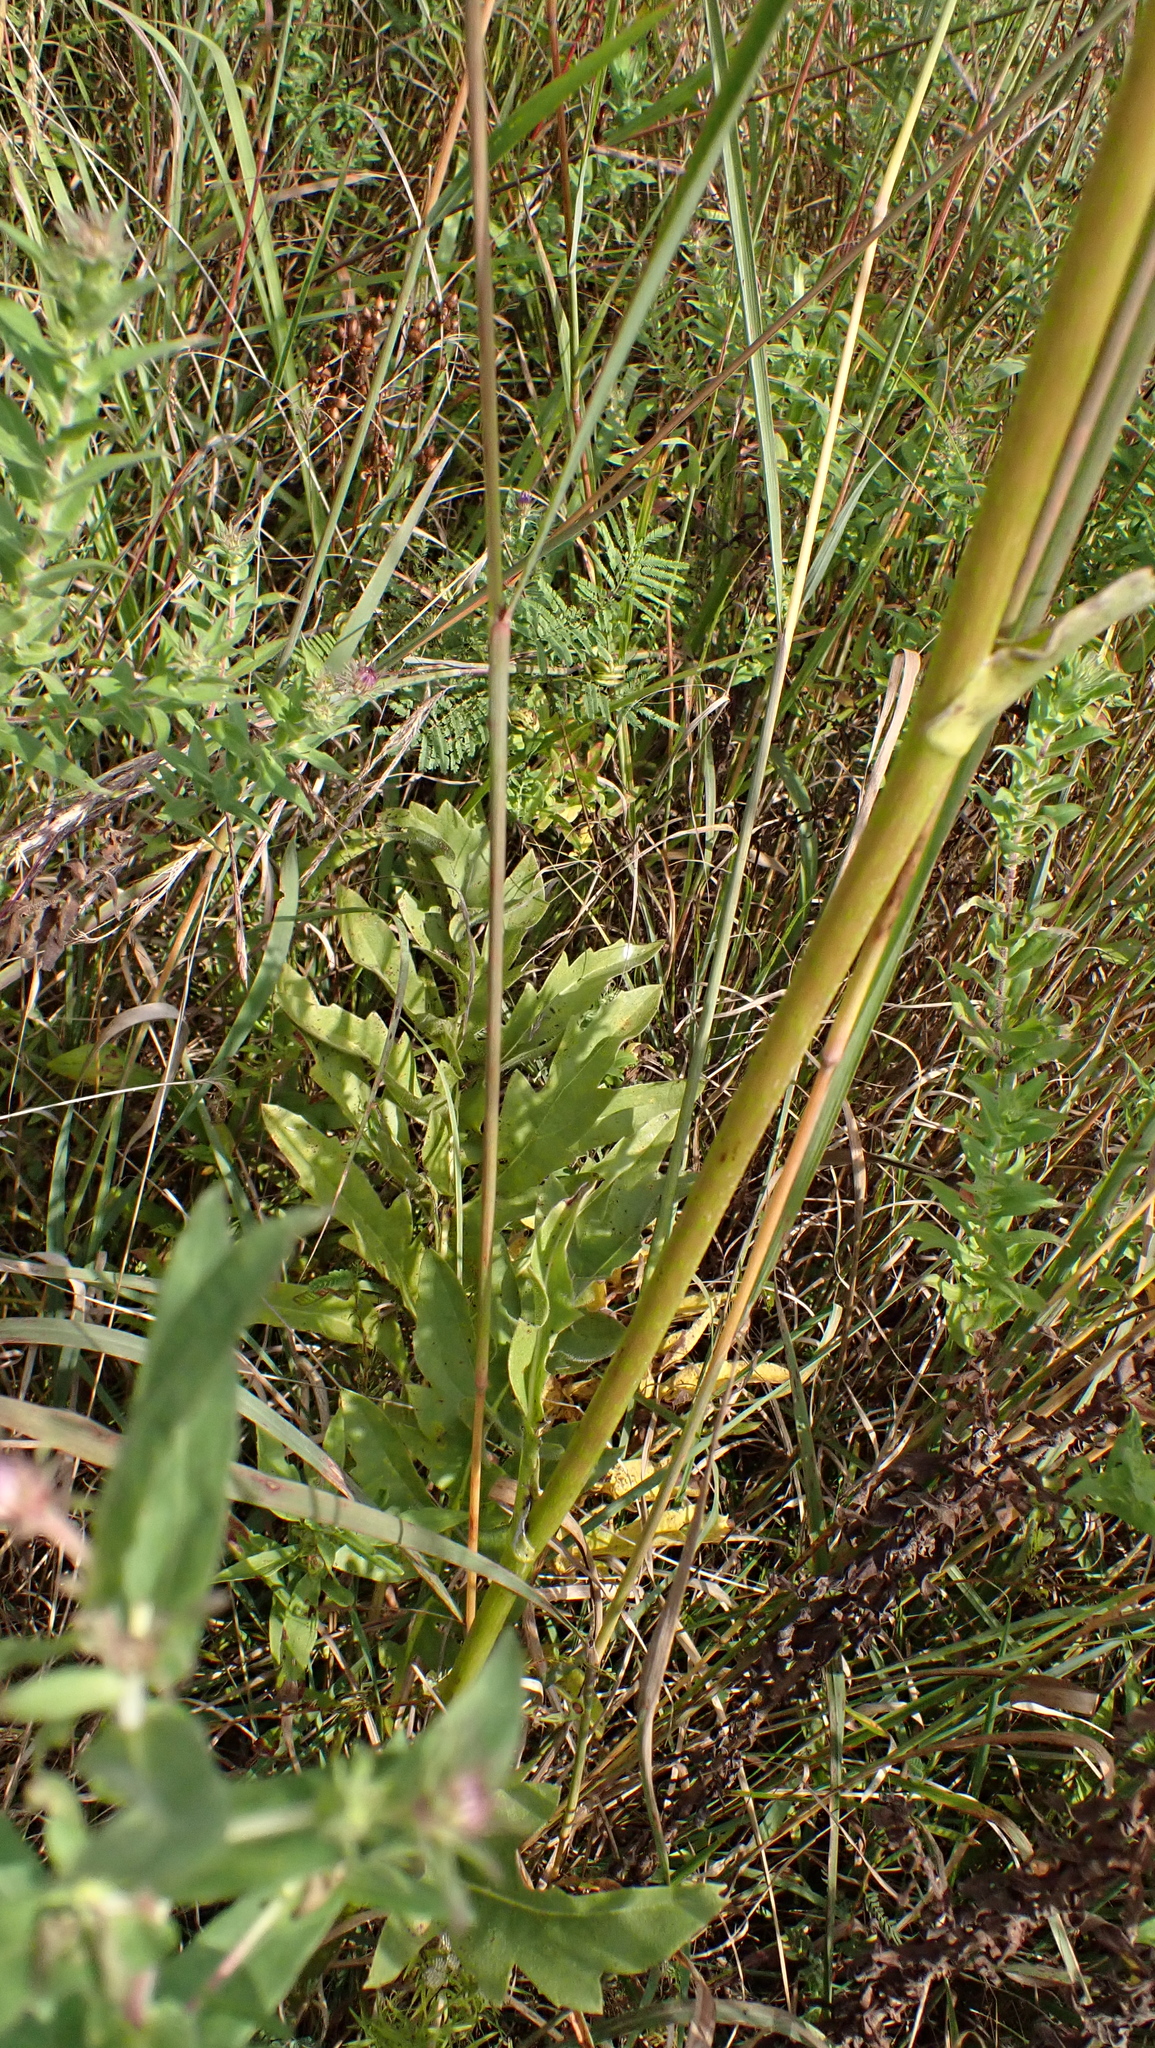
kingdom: Plantae
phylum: Tracheophyta
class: Magnoliopsida
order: Asterales
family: Asteraceae
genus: Silphium
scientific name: Silphium laciniatum
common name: Polarplant
